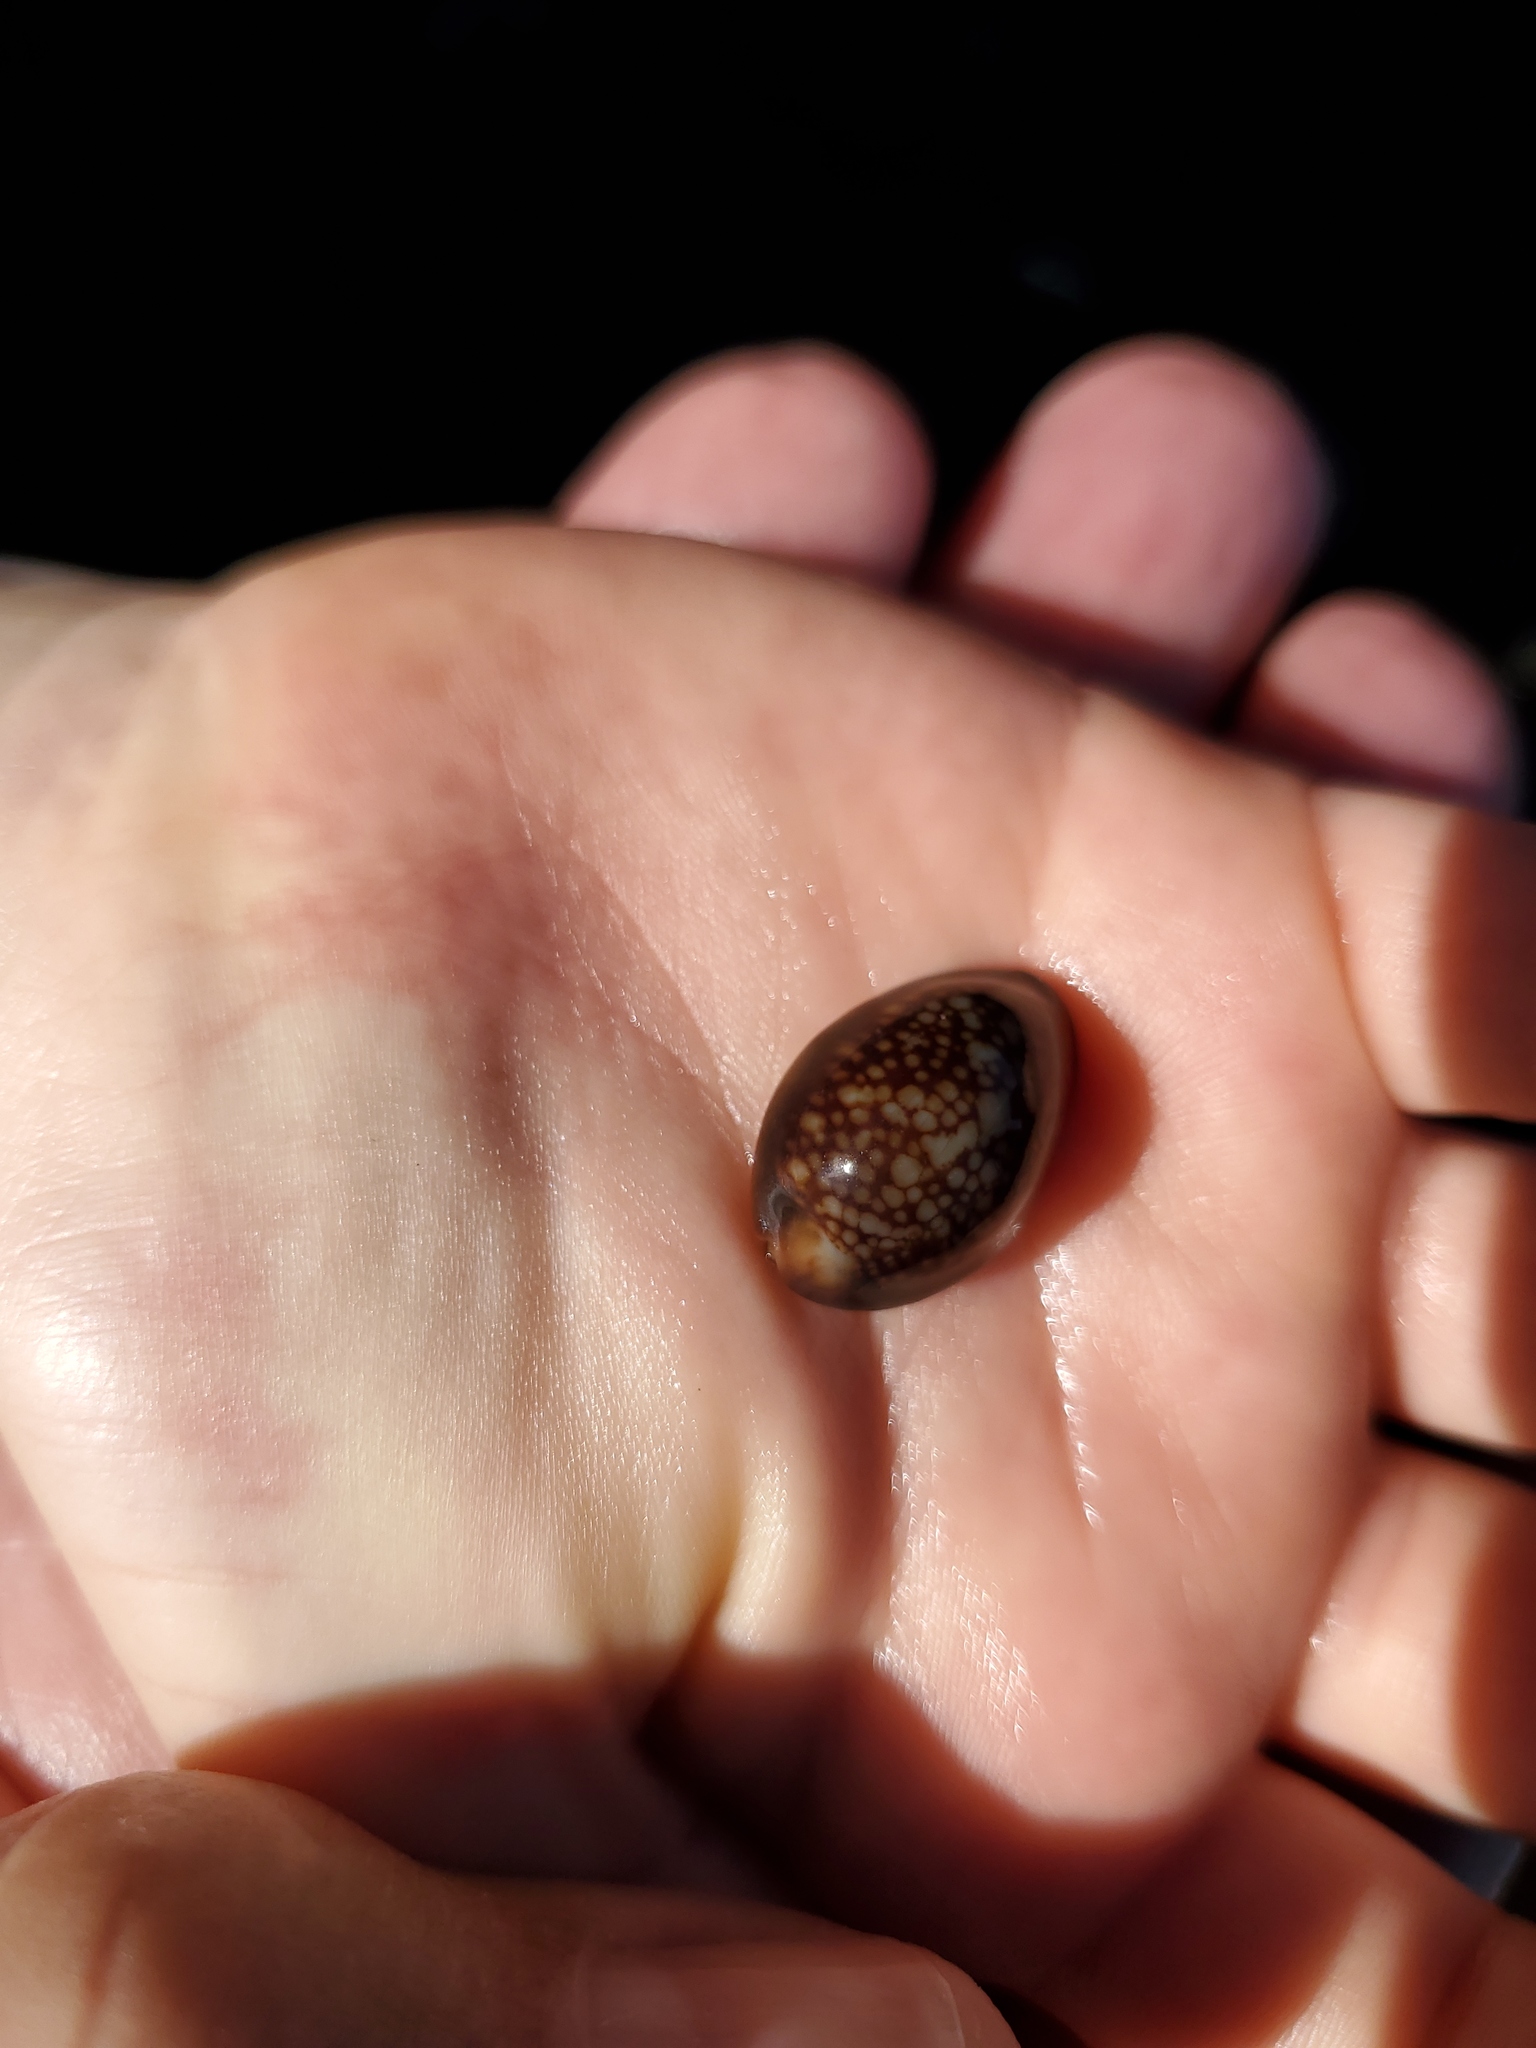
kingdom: Animalia
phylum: Mollusca
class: Gastropoda
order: Littorinimorpha
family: Cypraeidae
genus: Monetaria
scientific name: Monetaria caputophidii
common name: Snake's head cowry
